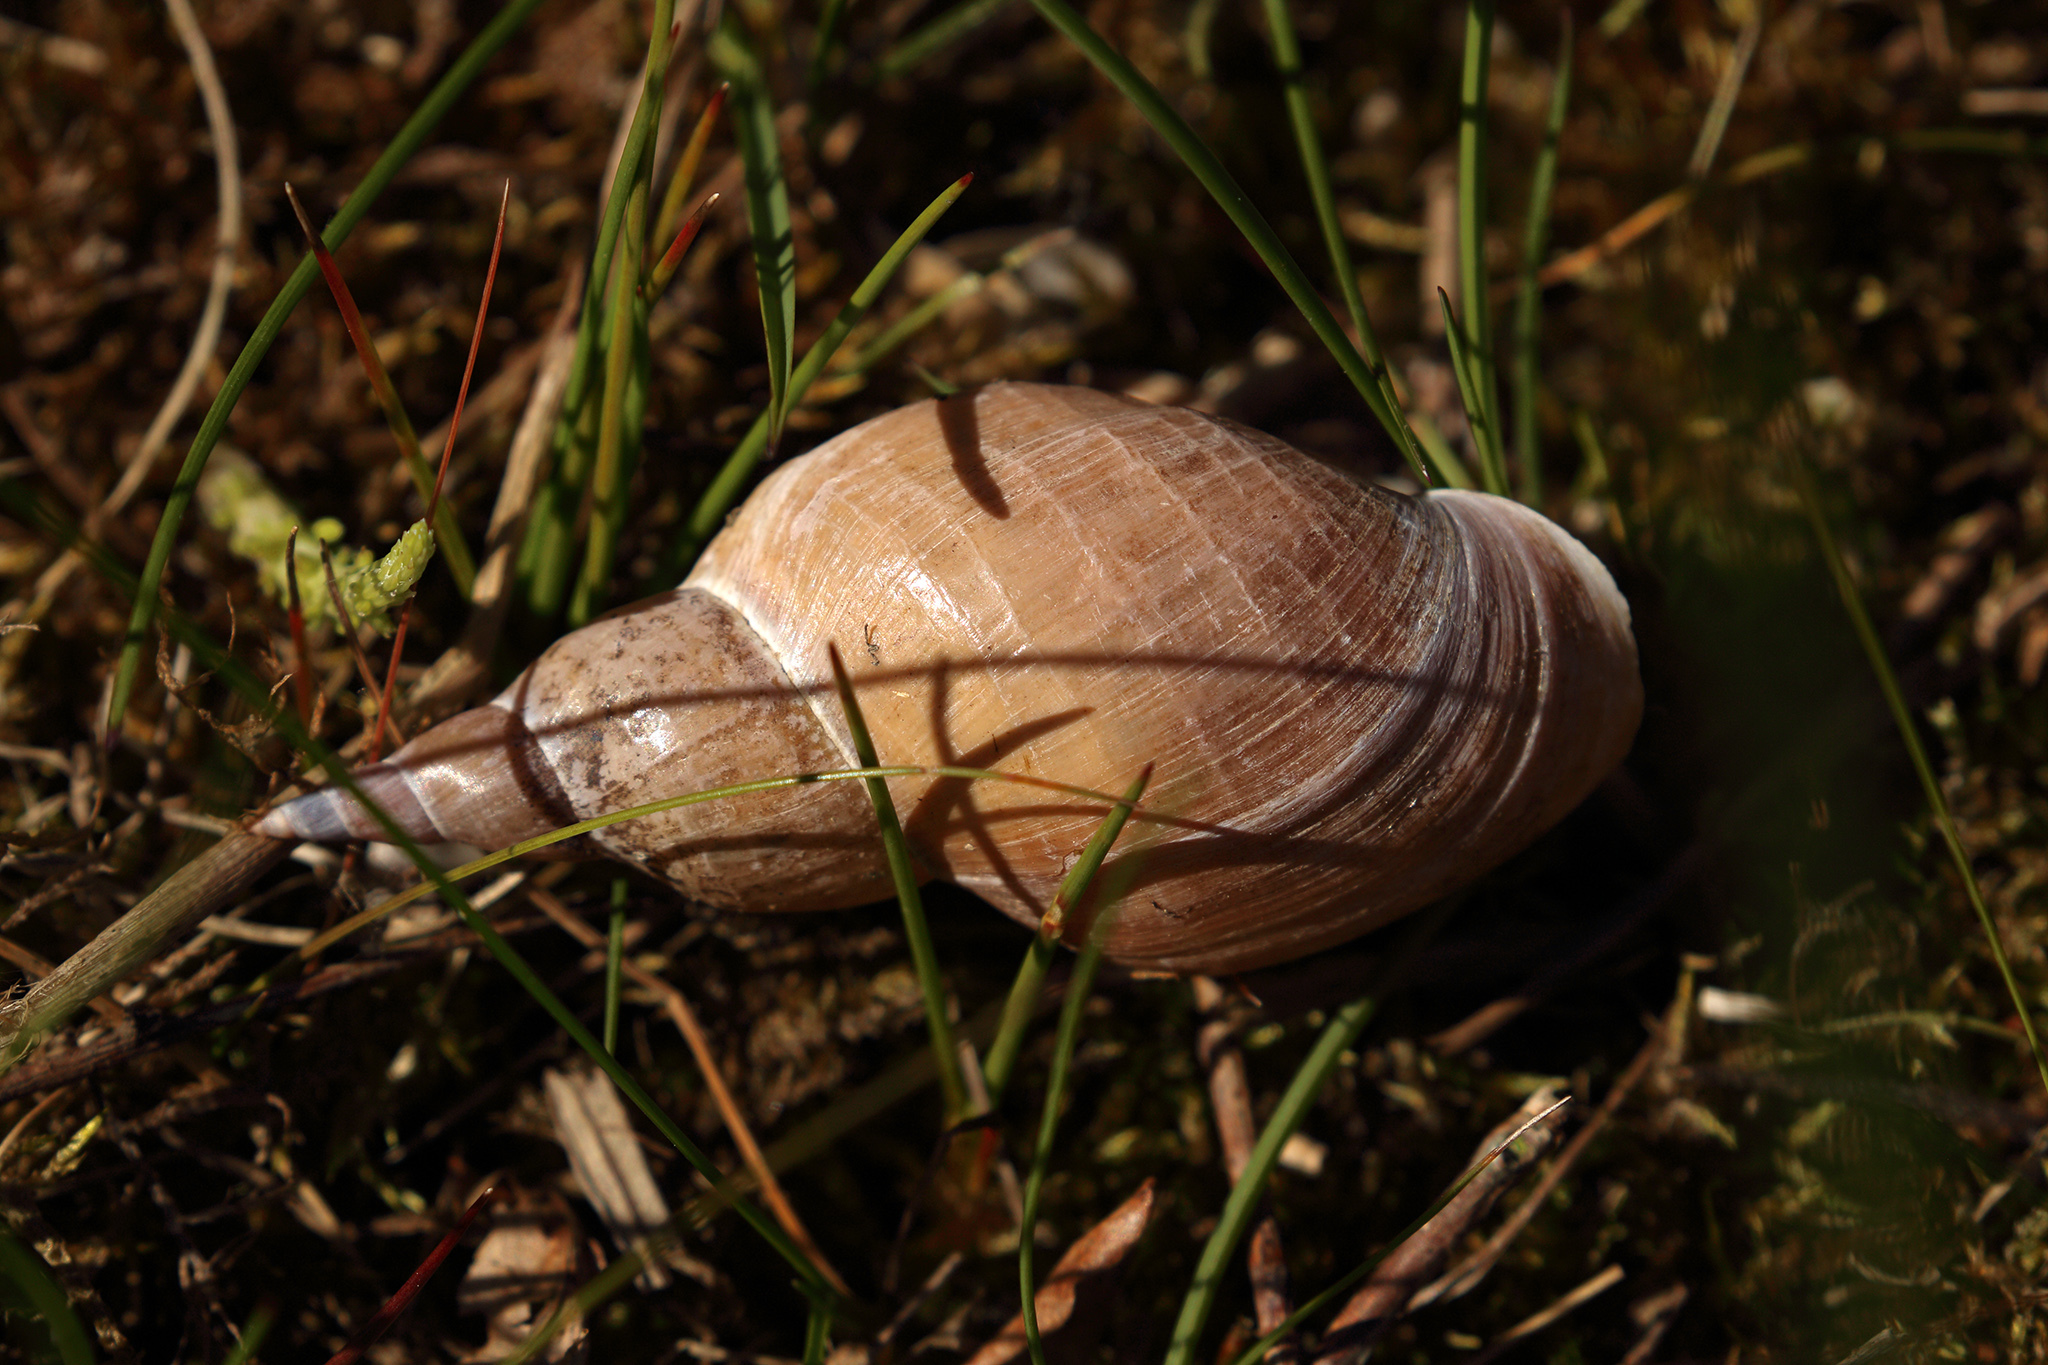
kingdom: Animalia
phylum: Mollusca
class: Gastropoda
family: Lymnaeidae
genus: Lymnaea
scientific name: Lymnaea stagnalis
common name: Great pond snail
